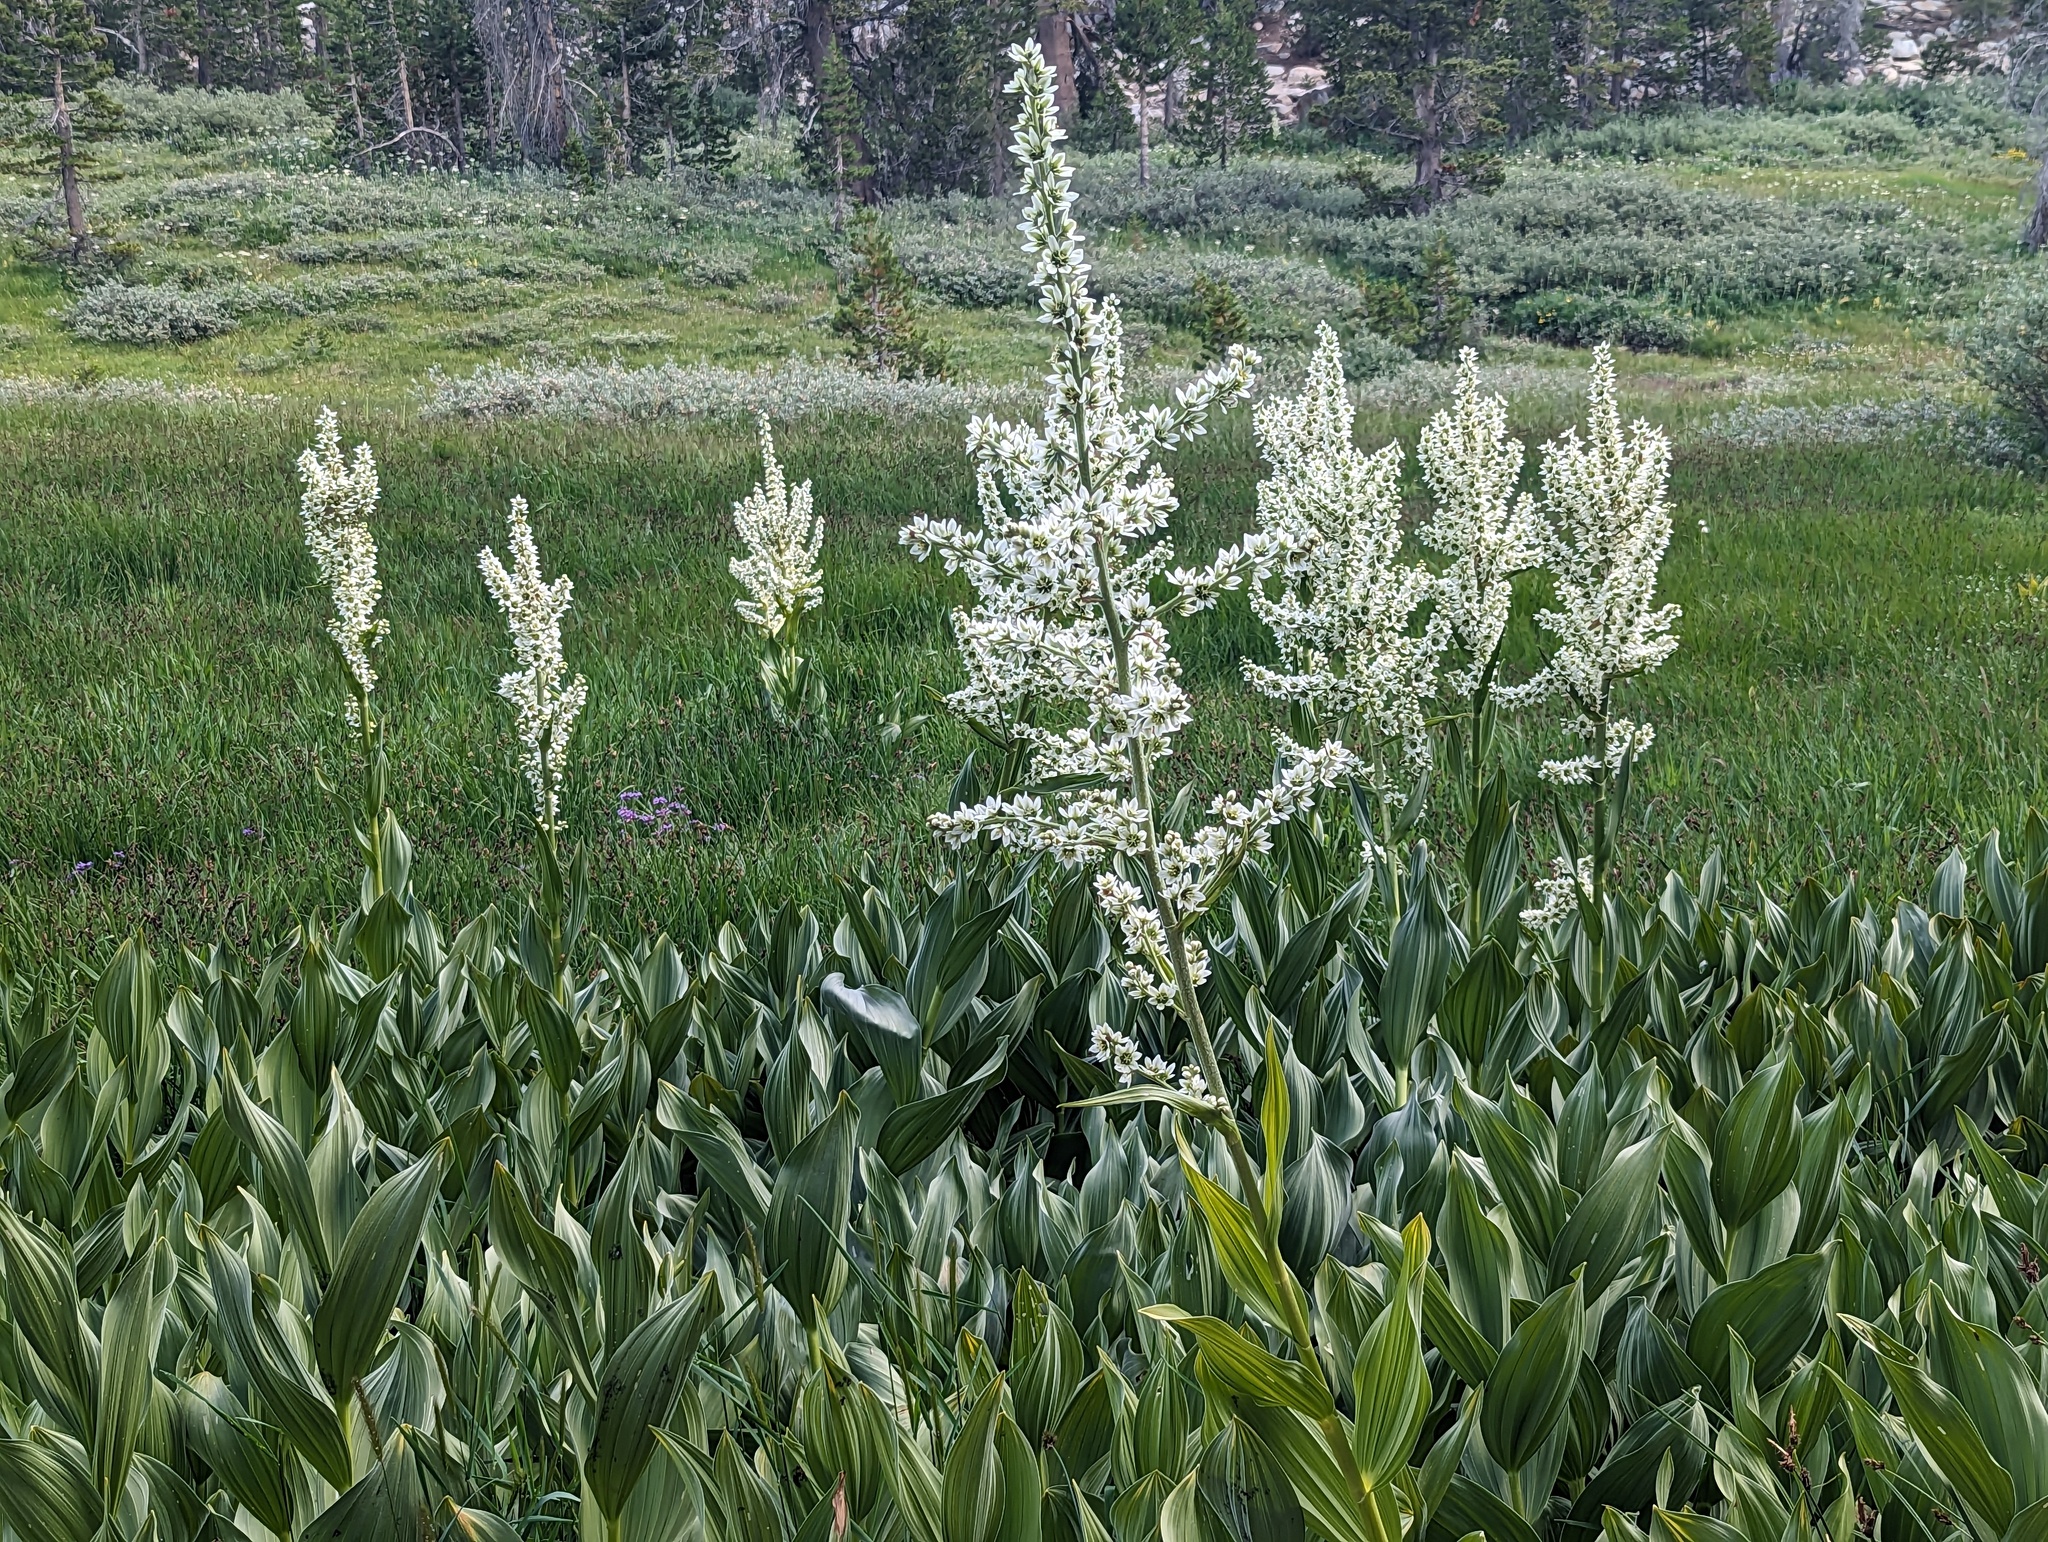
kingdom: Plantae
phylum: Tracheophyta
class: Liliopsida
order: Liliales
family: Melanthiaceae
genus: Veratrum
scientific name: Veratrum californicum
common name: California veratrum
